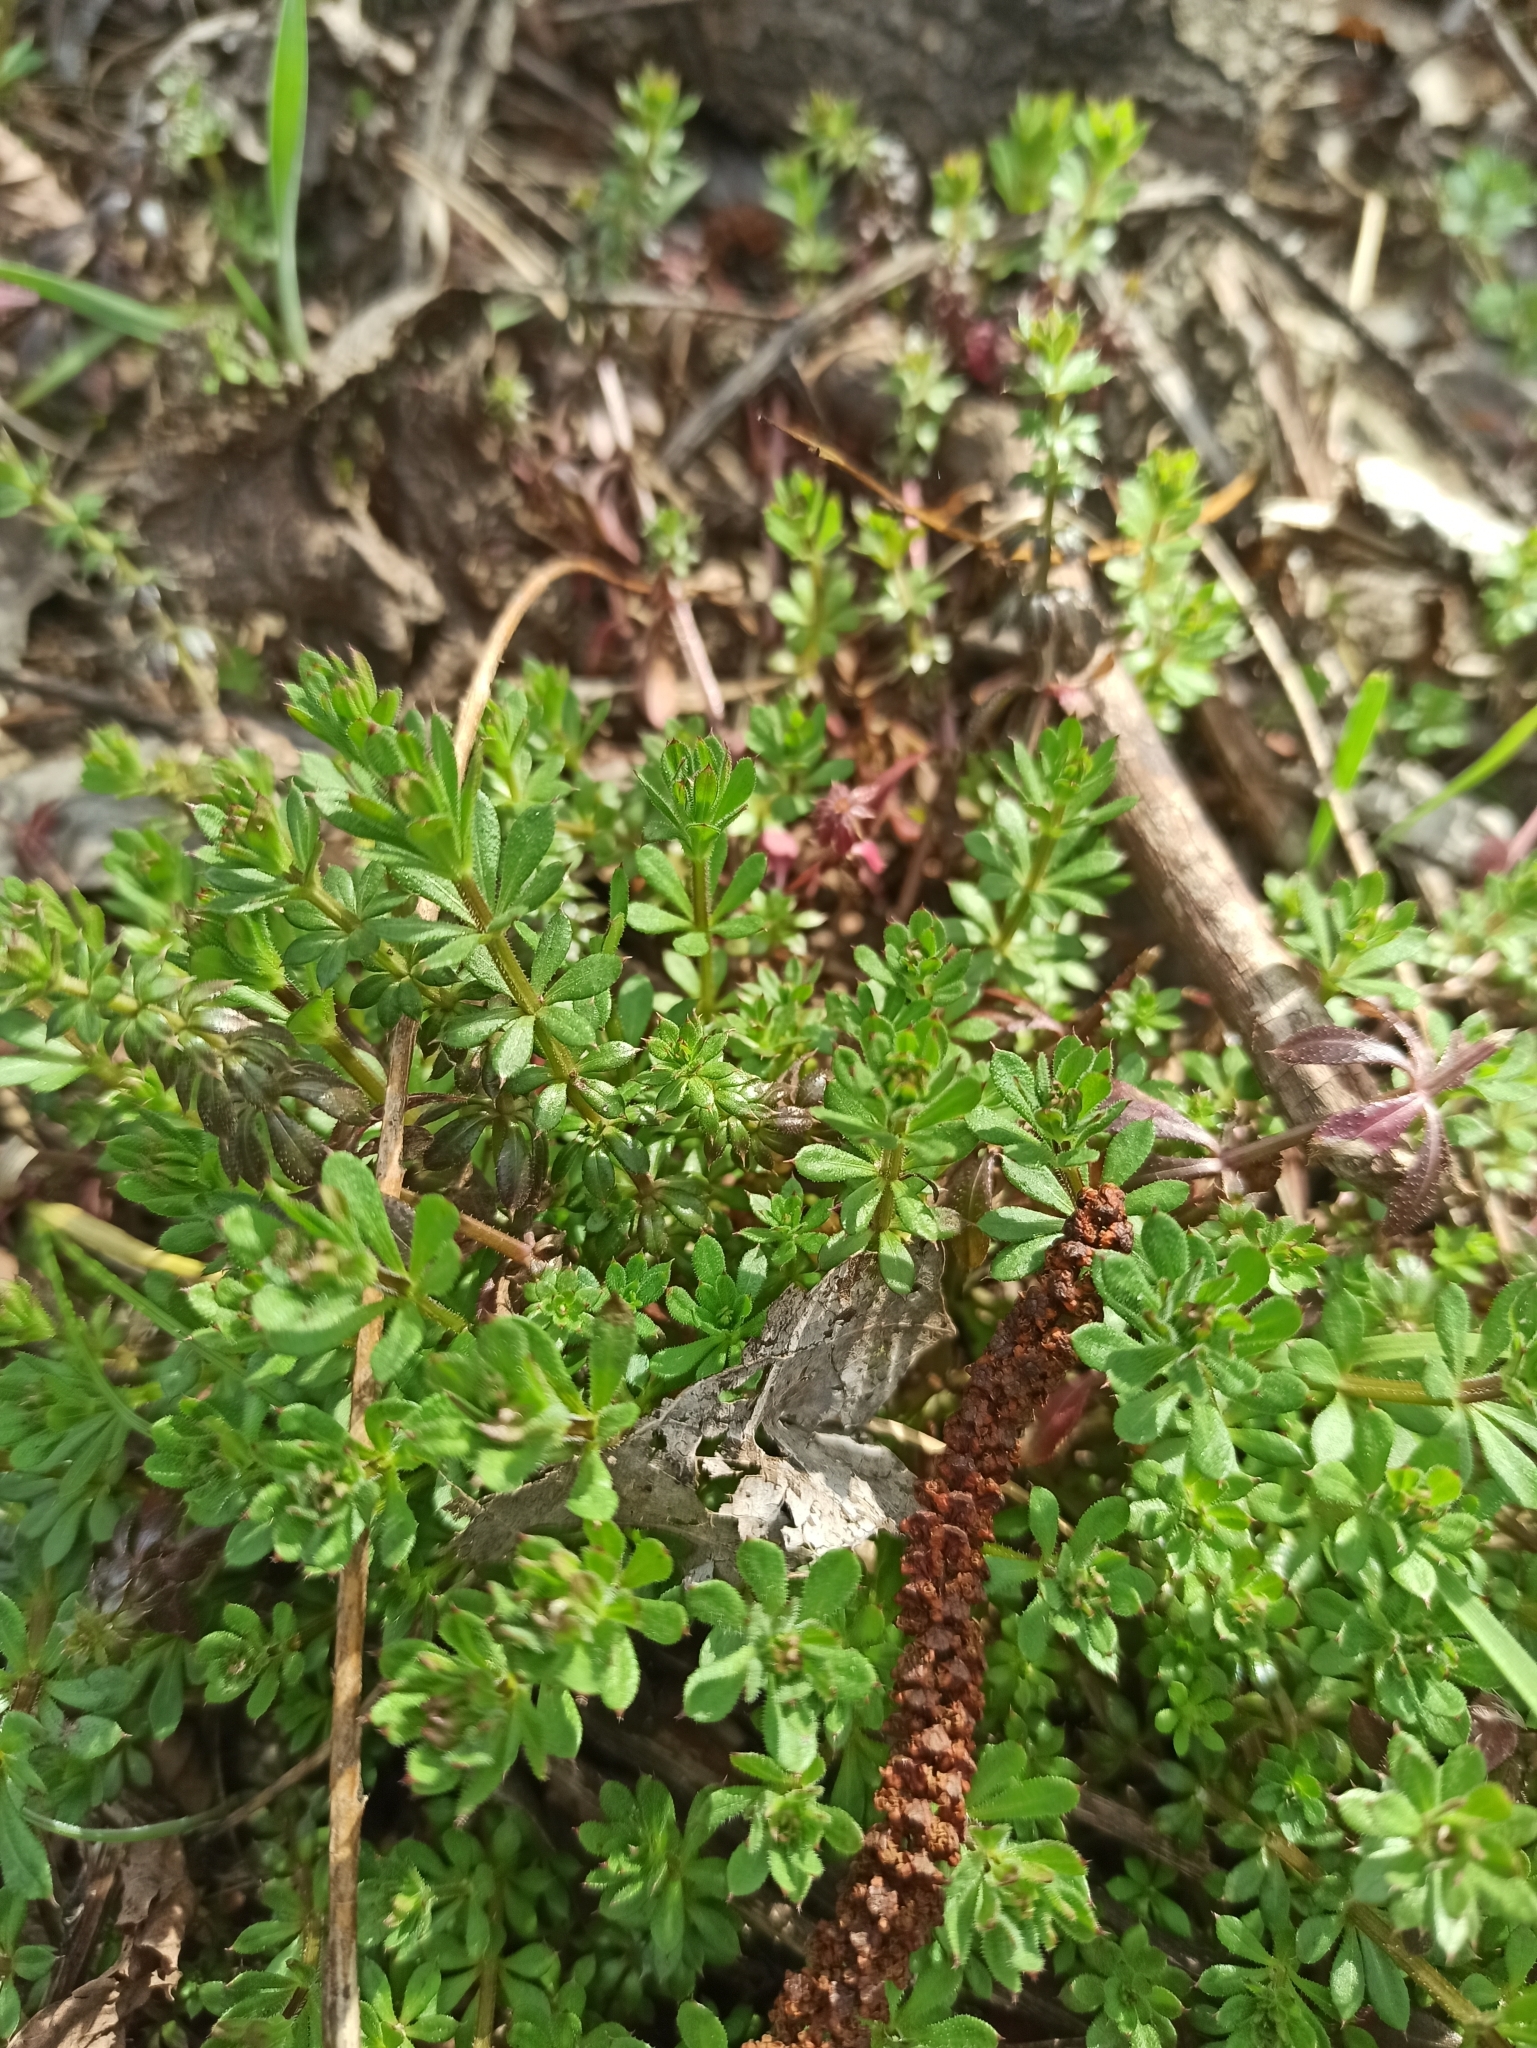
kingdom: Plantae
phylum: Tracheophyta
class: Magnoliopsida
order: Gentianales
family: Rubiaceae
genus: Galium
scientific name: Galium mollugo
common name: Hedge bedstraw
